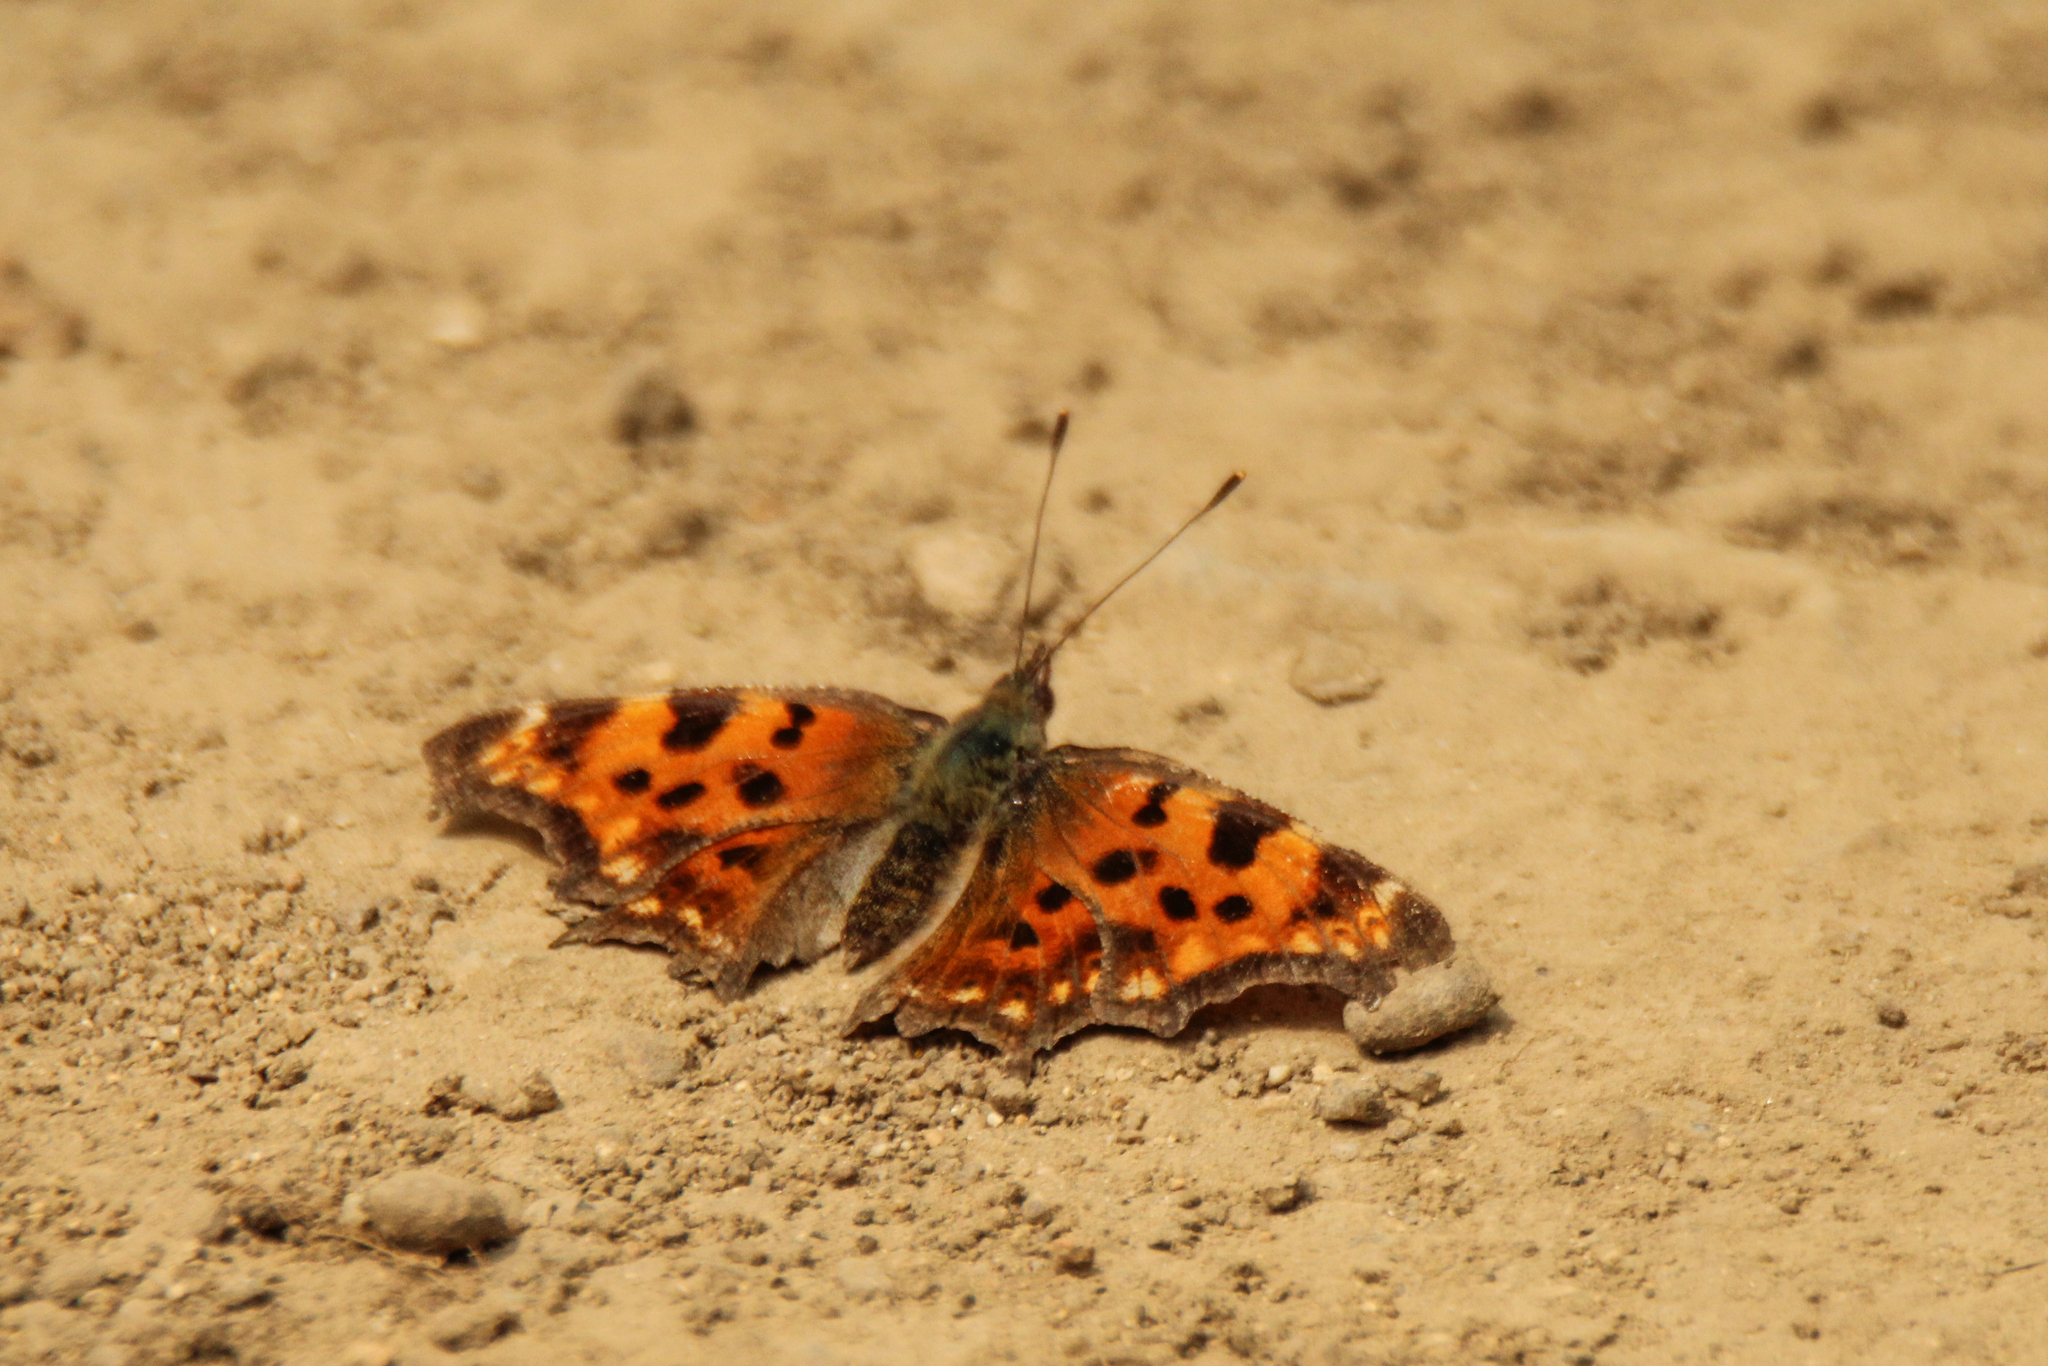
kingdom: Animalia
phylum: Arthropoda
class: Insecta
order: Lepidoptera
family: Nymphalidae
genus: Polygonia
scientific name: Polygonia c-album
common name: Comma
